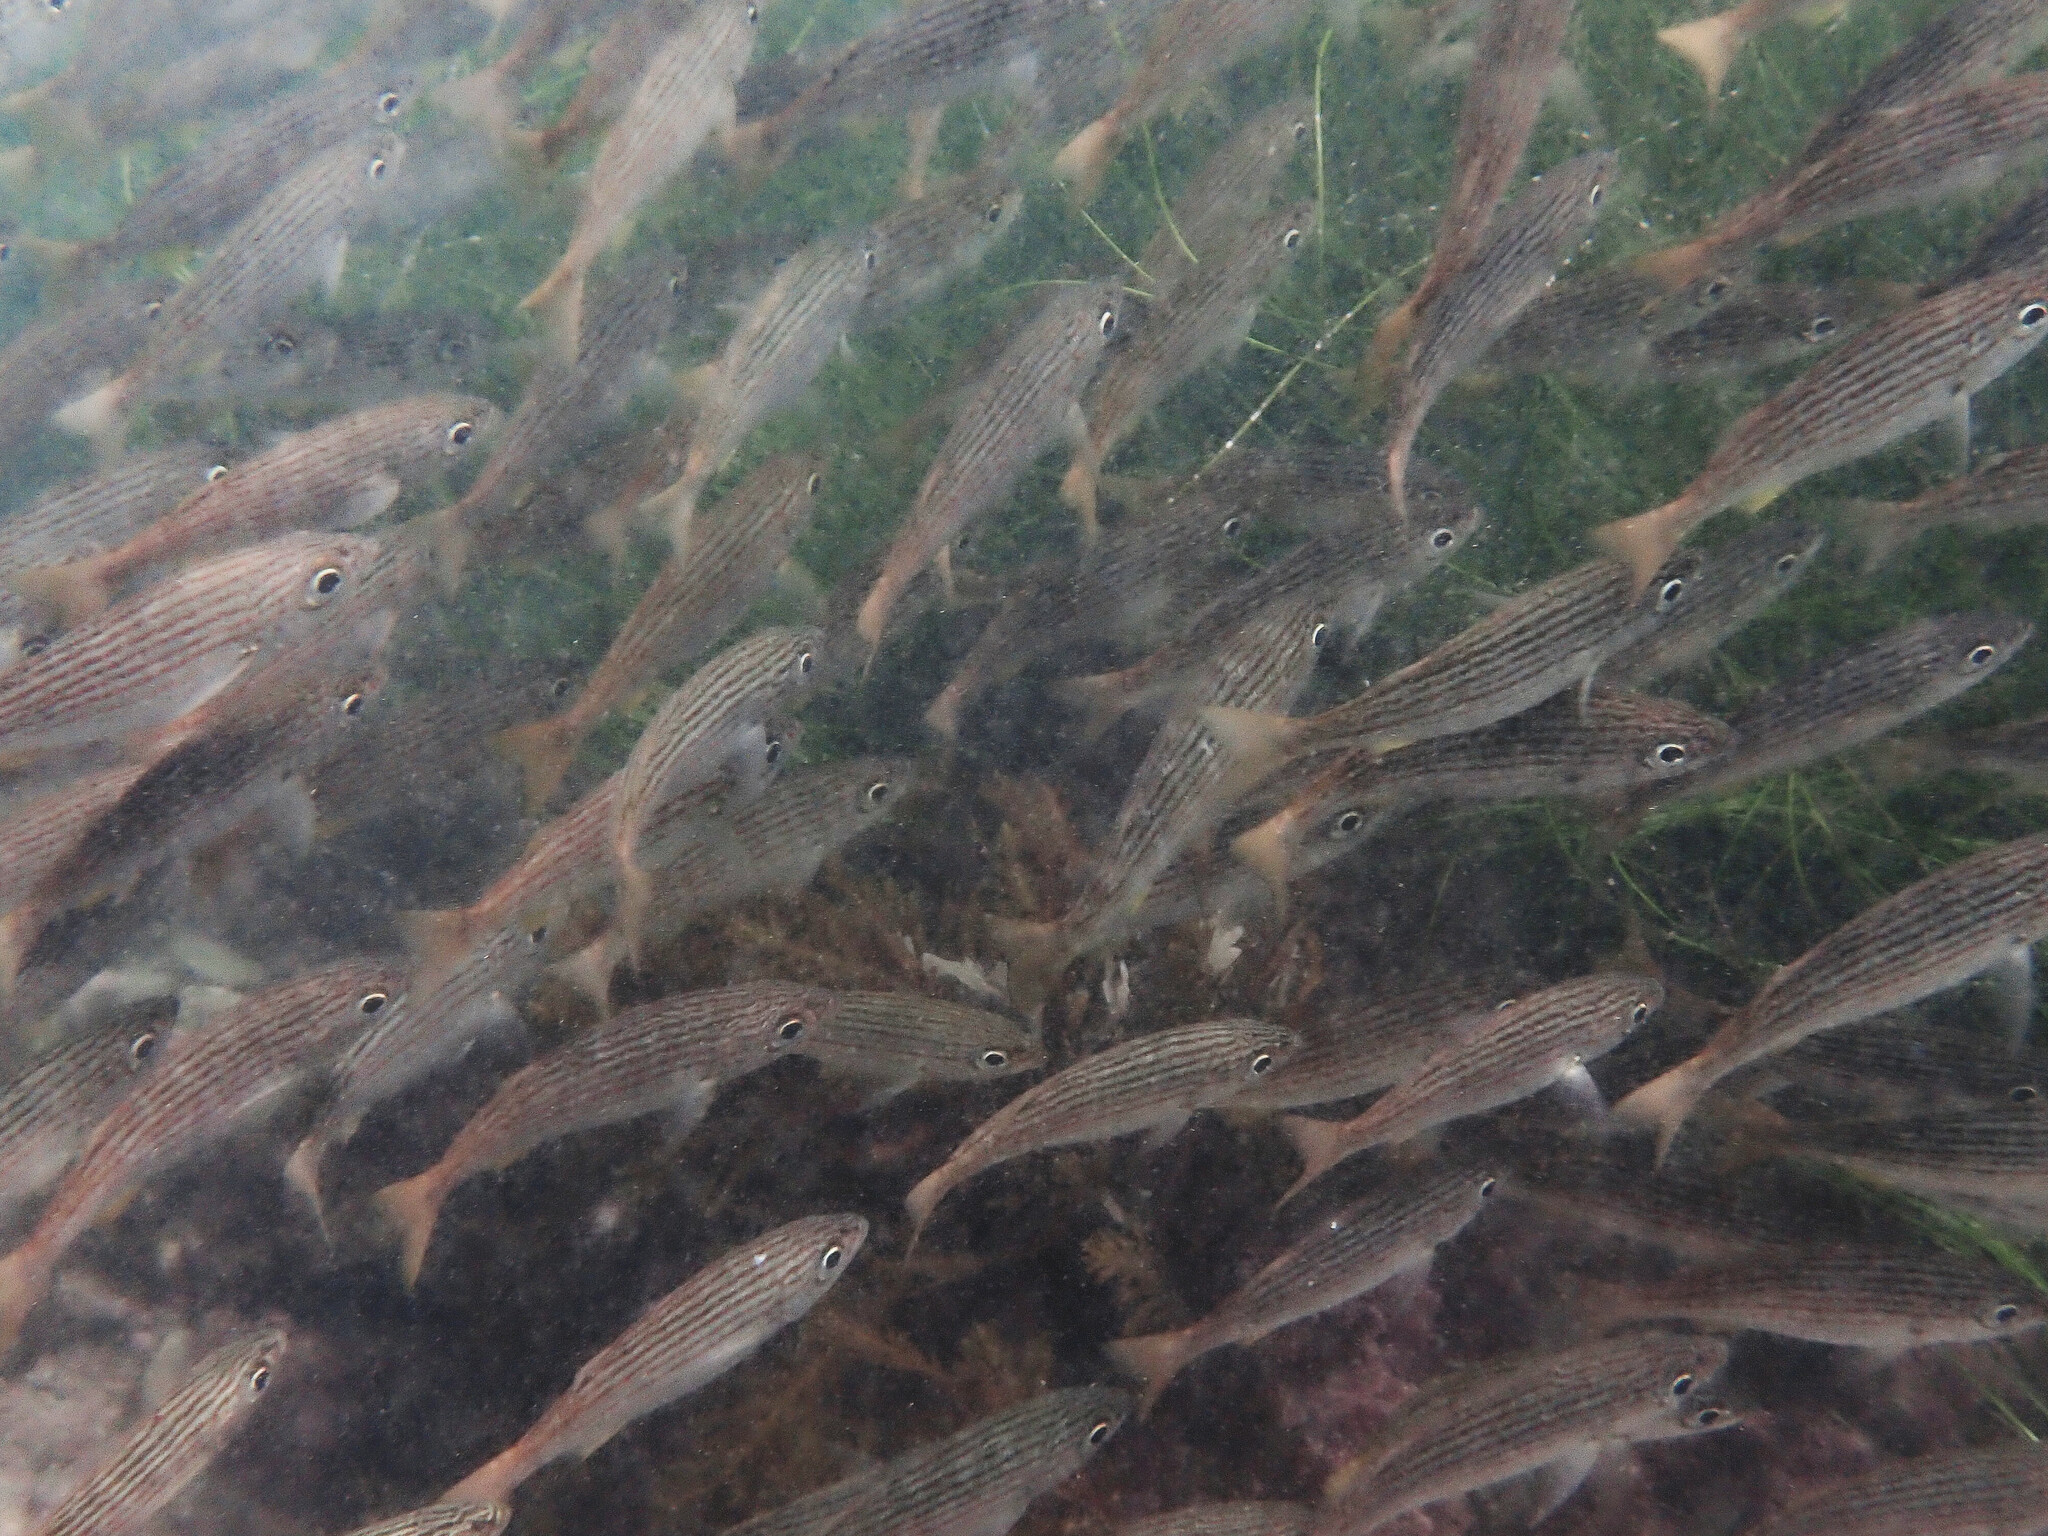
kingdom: Animalia
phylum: Chordata
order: Perciformes
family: Haemulidae
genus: Haemulon
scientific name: Haemulon californiensis
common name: Californian salema
